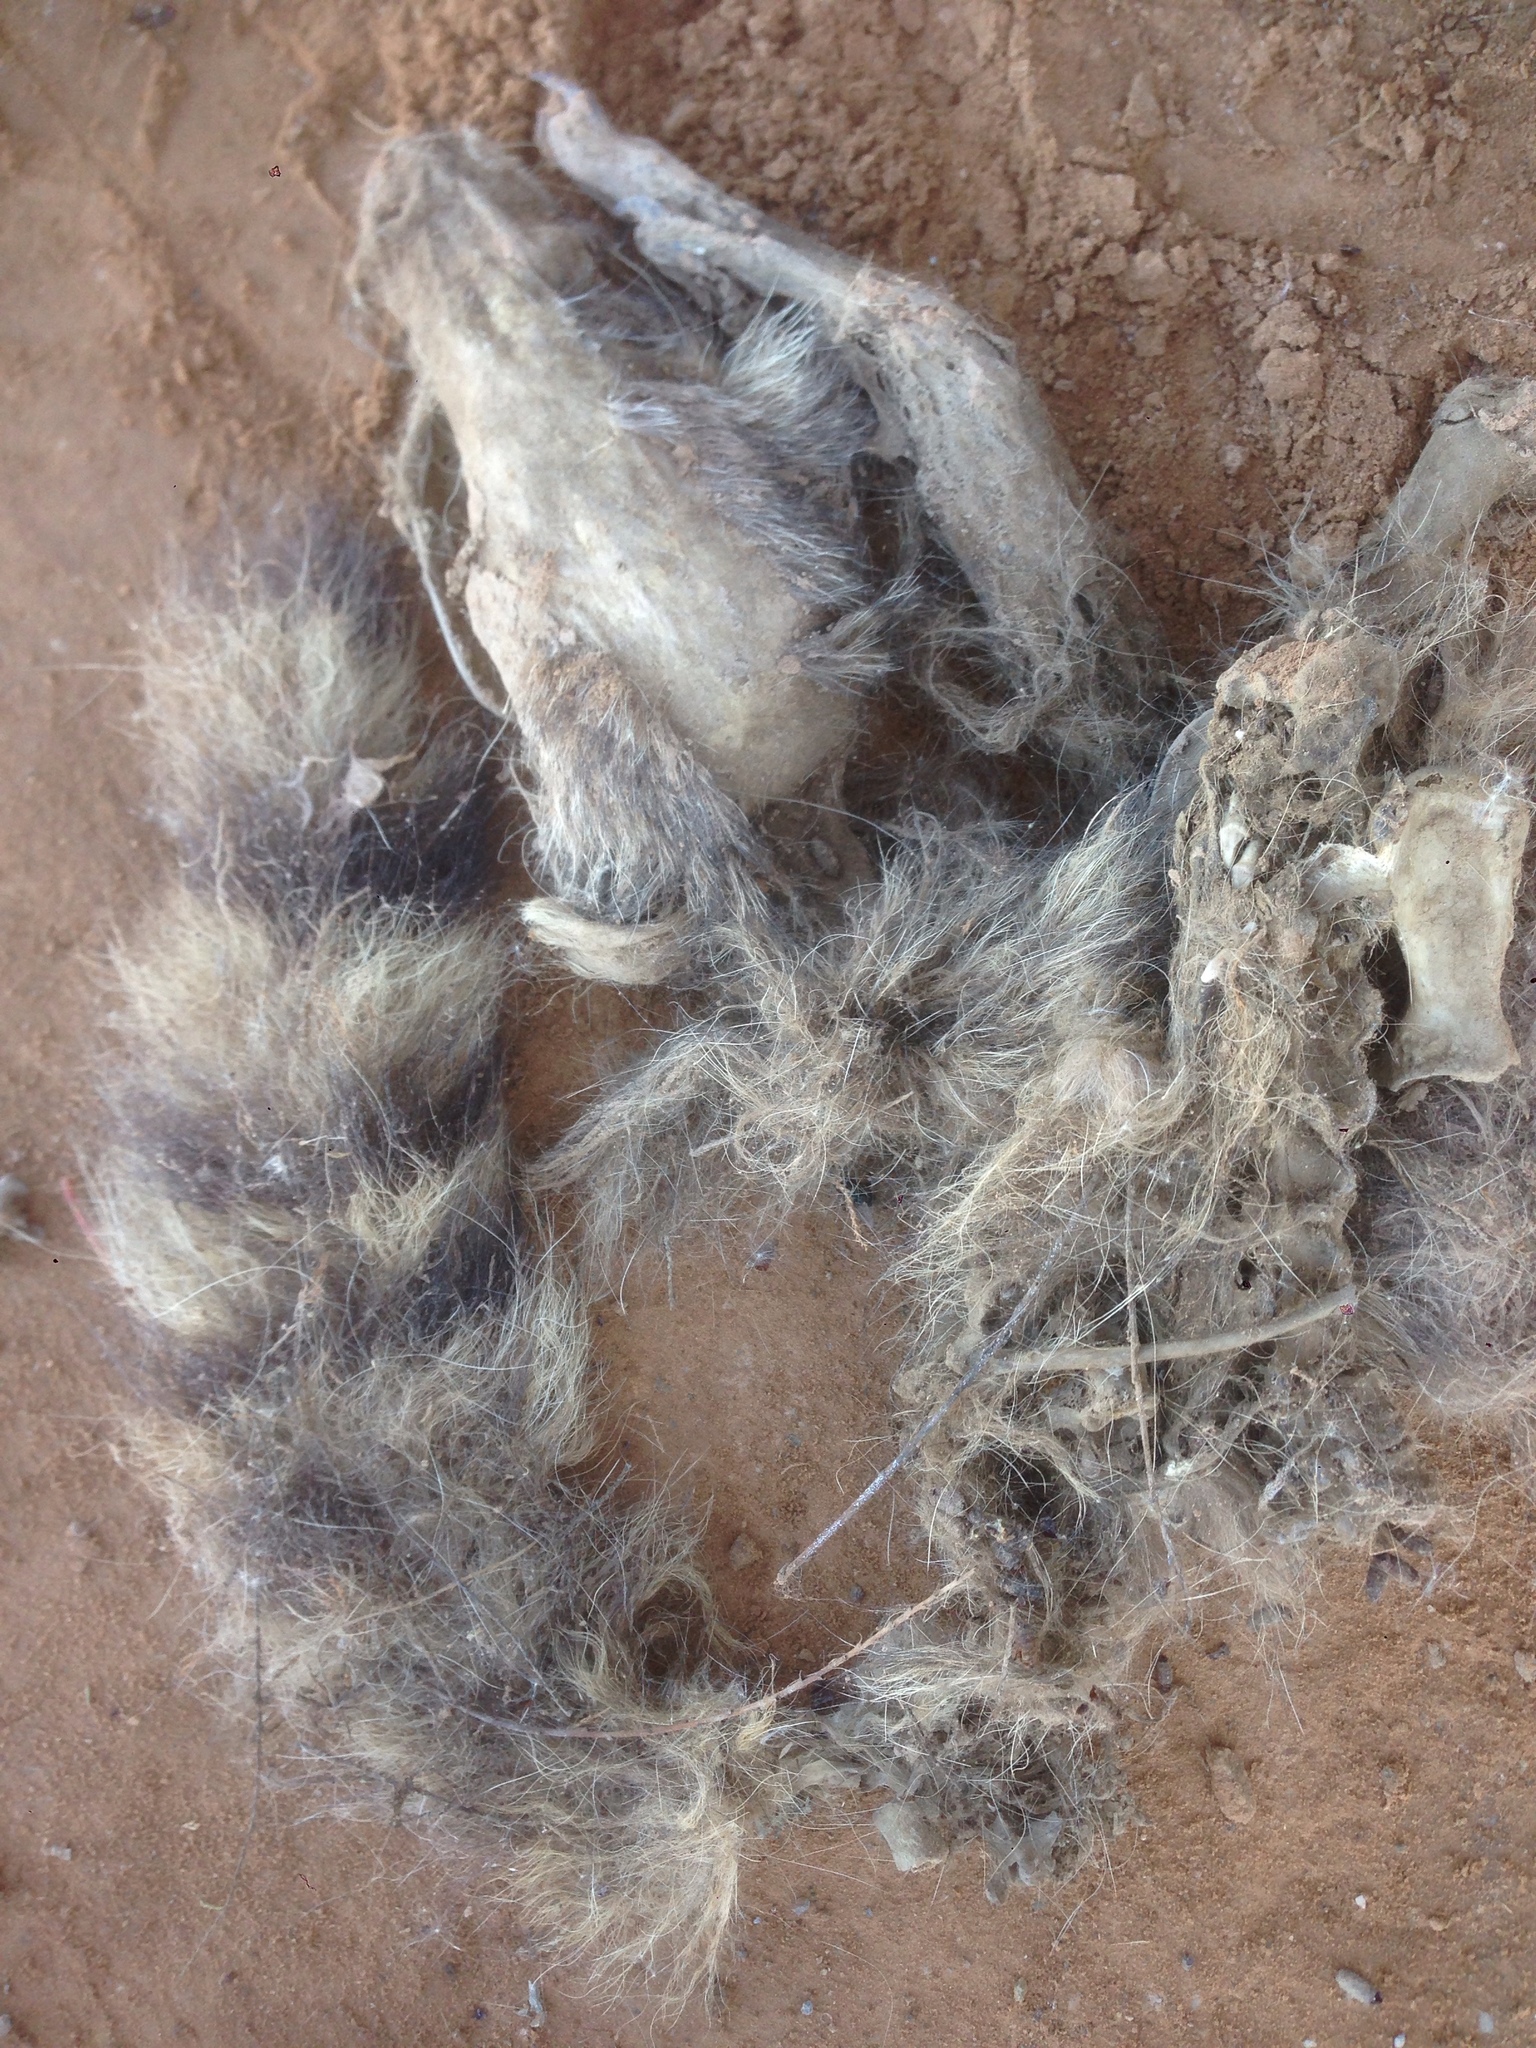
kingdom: Animalia
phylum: Chordata
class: Mammalia
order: Carnivora
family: Procyonidae
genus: Procyon
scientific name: Procyon lotor
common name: Raccoon
